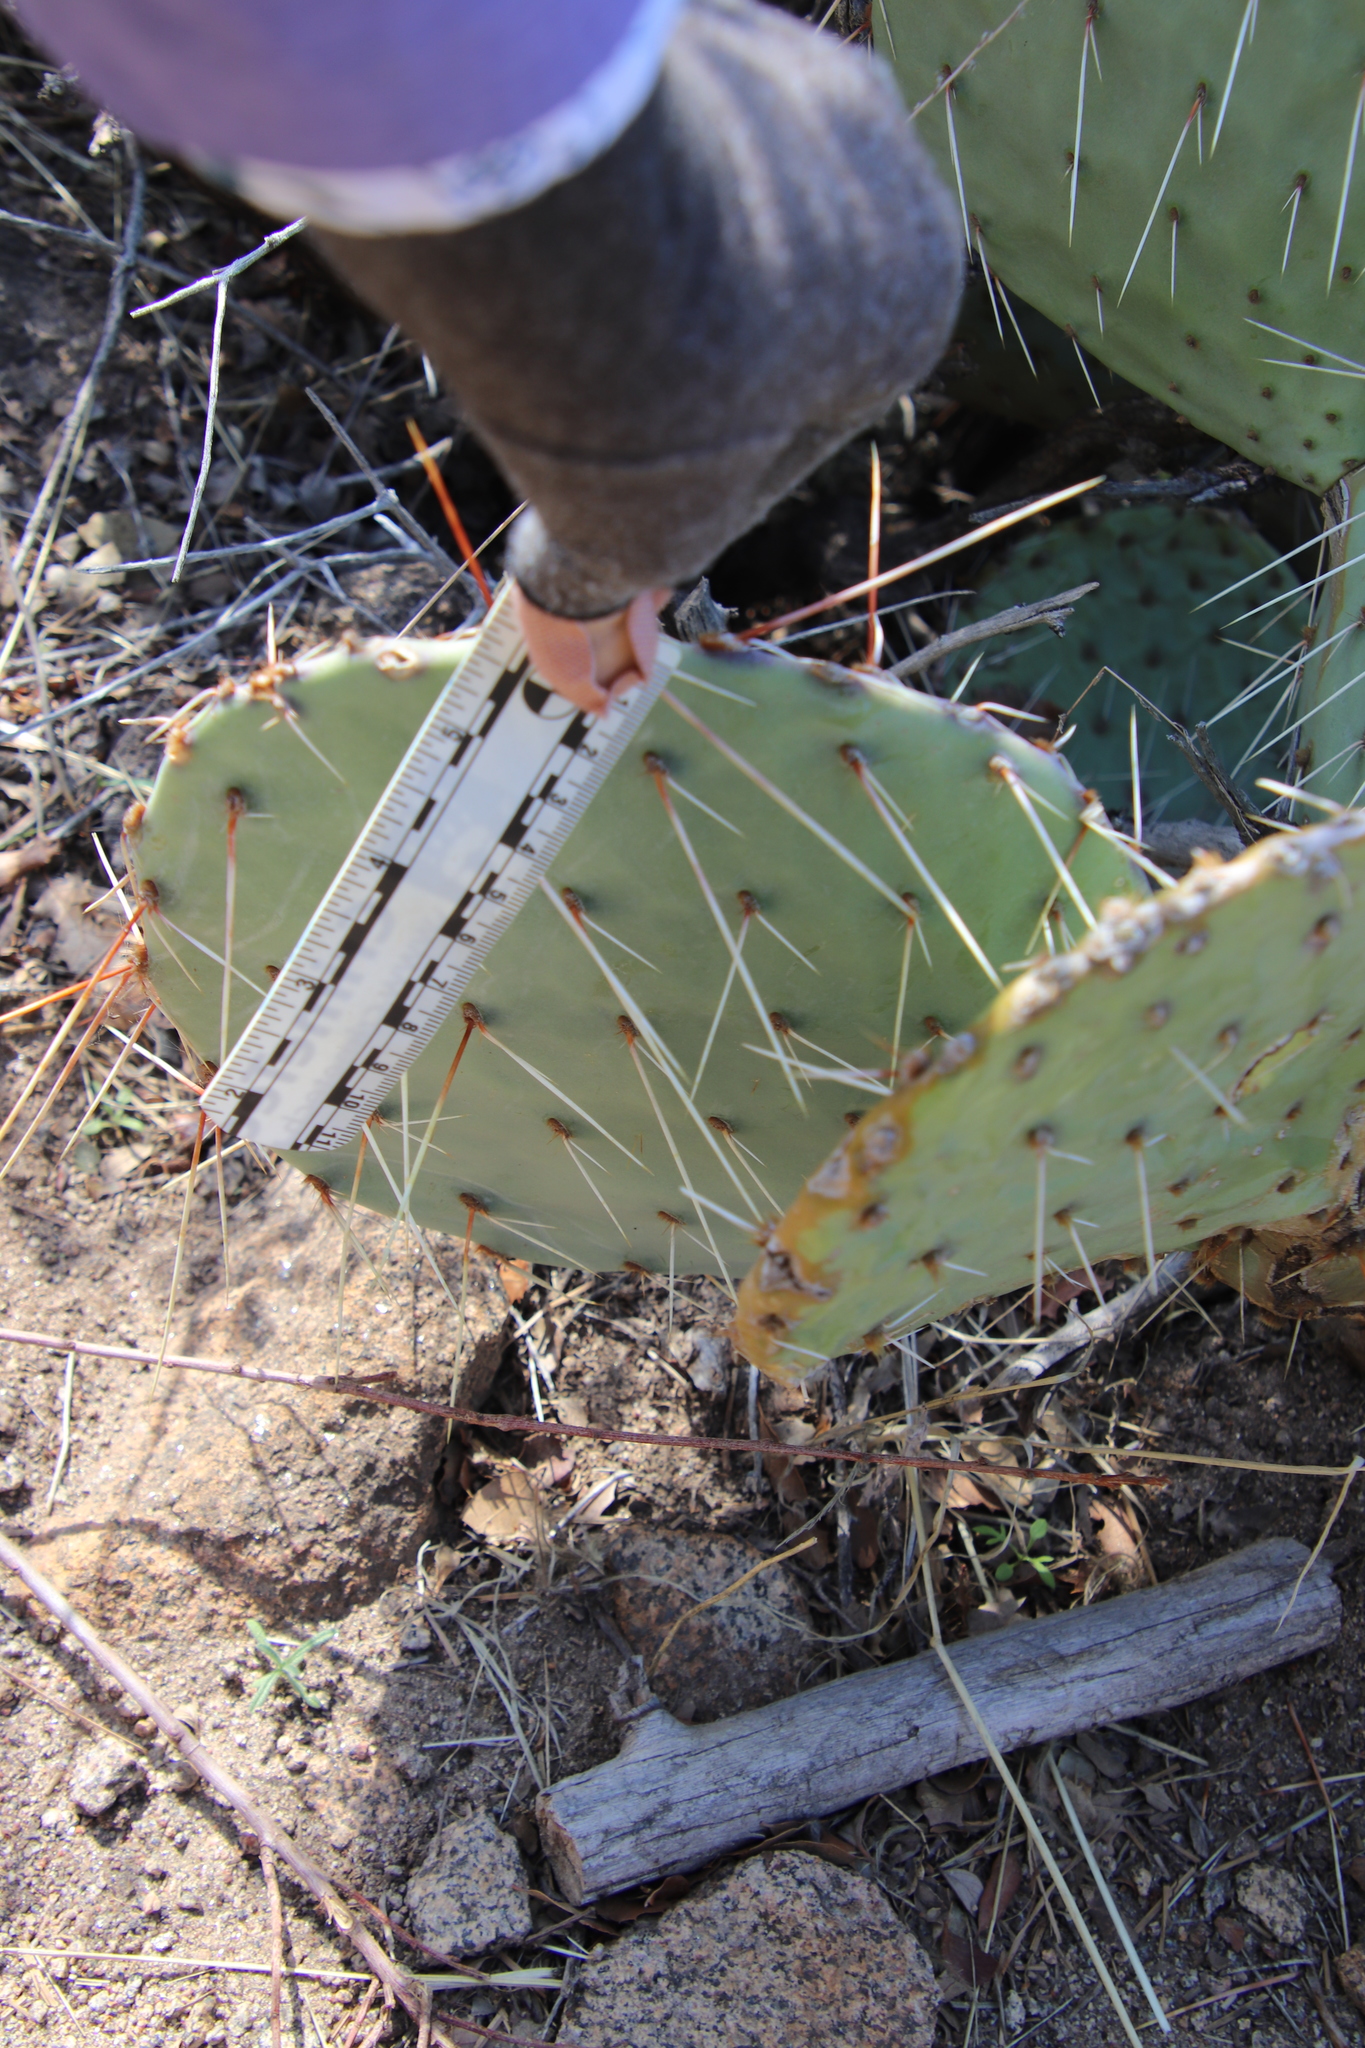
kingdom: Plantae
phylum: Tracheophyta
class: Magnoliopsida
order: Caryophyllales
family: Cactaceae
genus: Opuntia
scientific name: Opuntia phaeacantha
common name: New mexico prickly-pear
